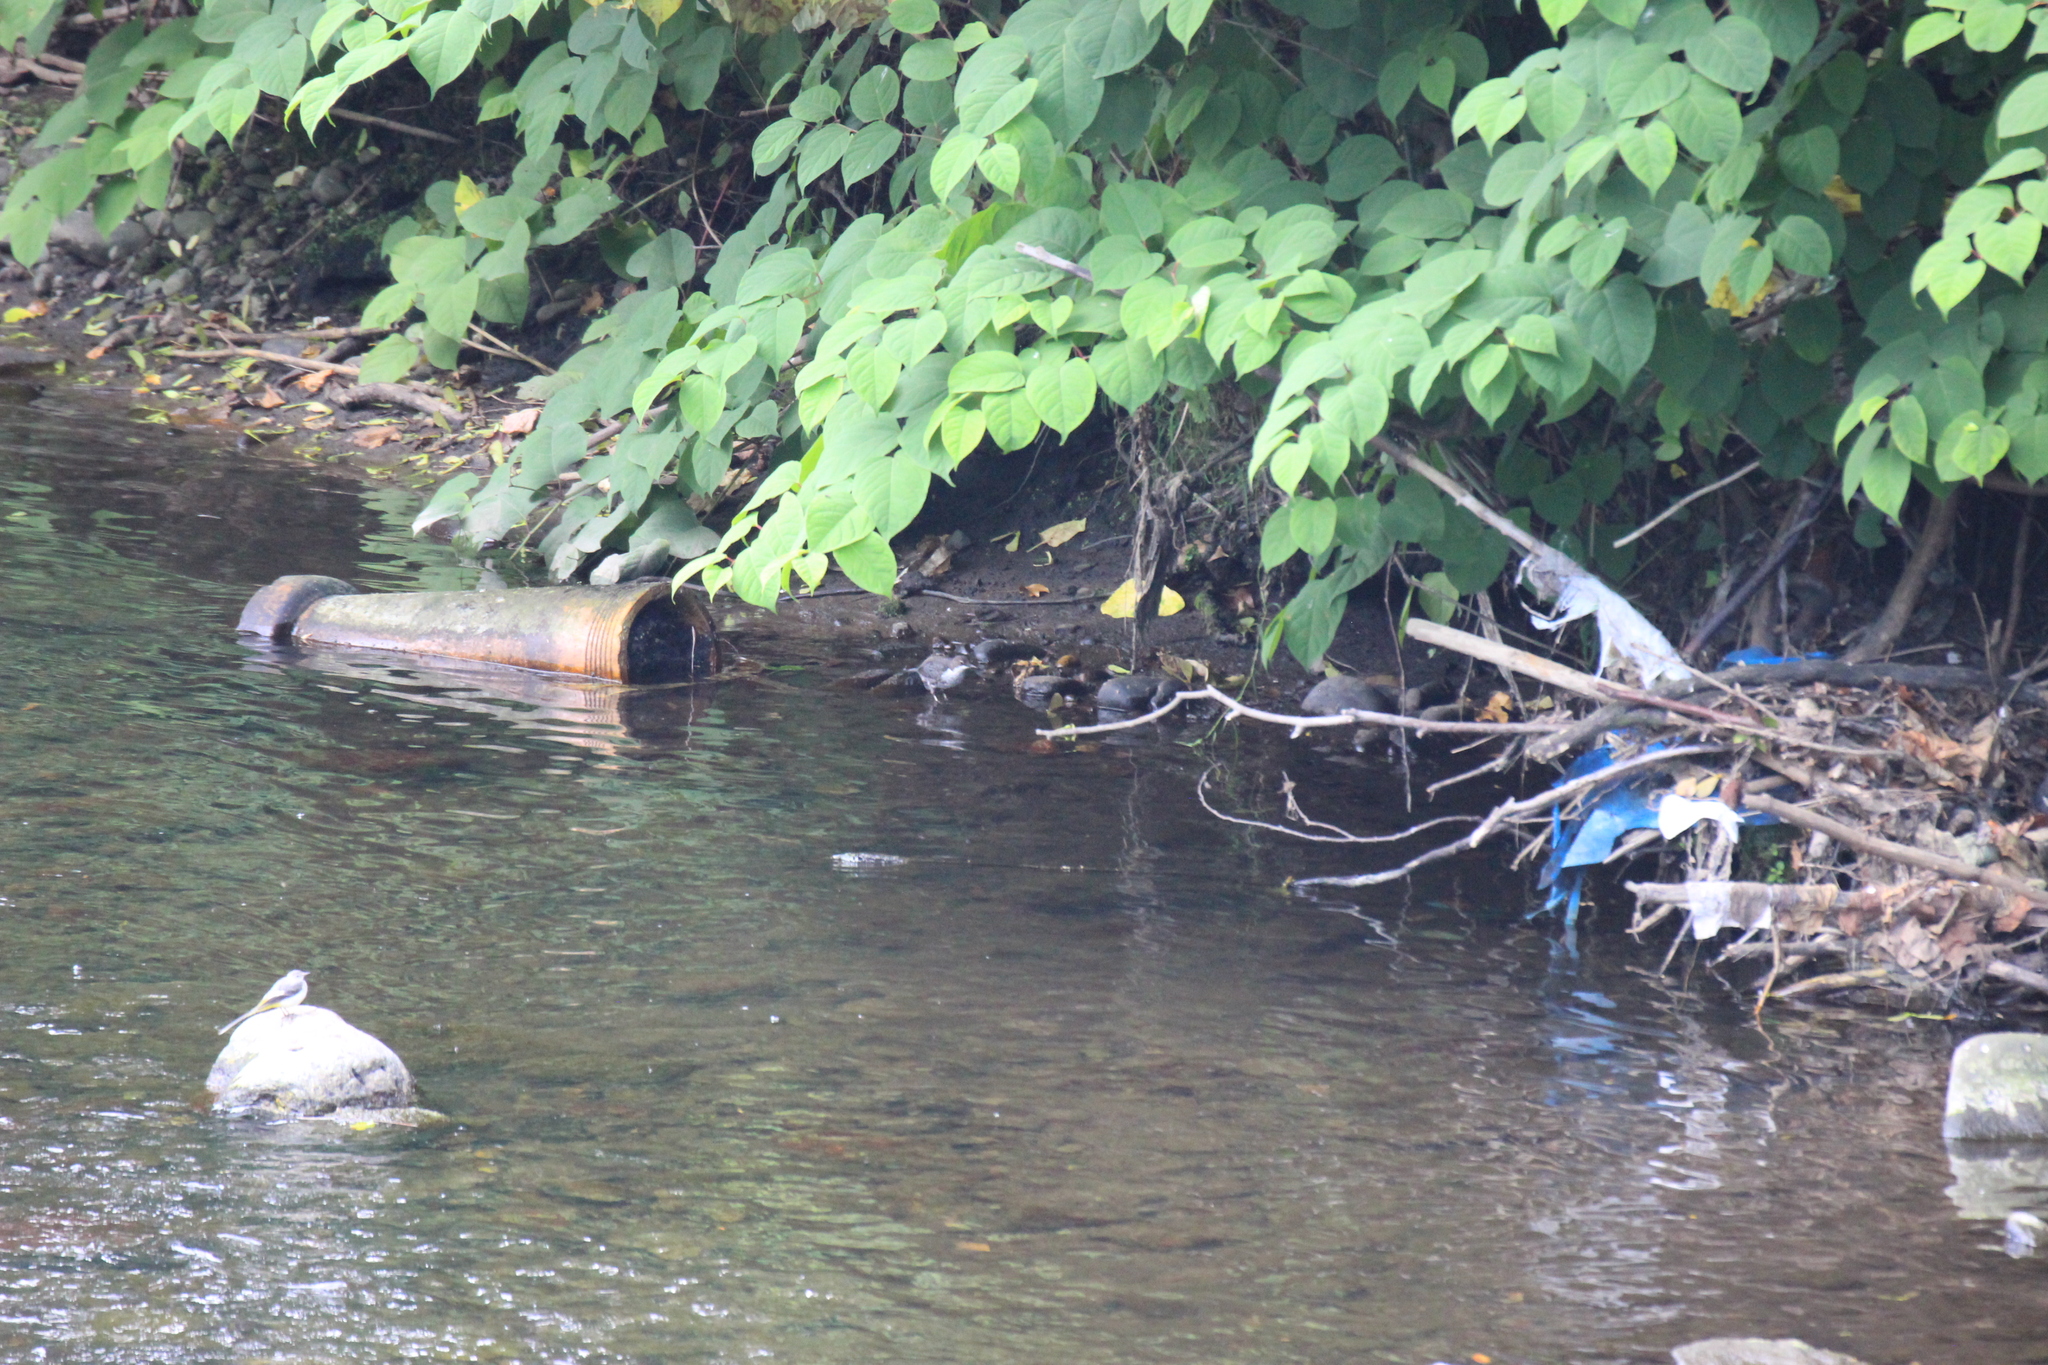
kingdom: Animalia
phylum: Chordata
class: Aves
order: Passeriformes
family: Cinclidae
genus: Cinclus
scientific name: Cinclus cinclus
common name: White-throated dipper
